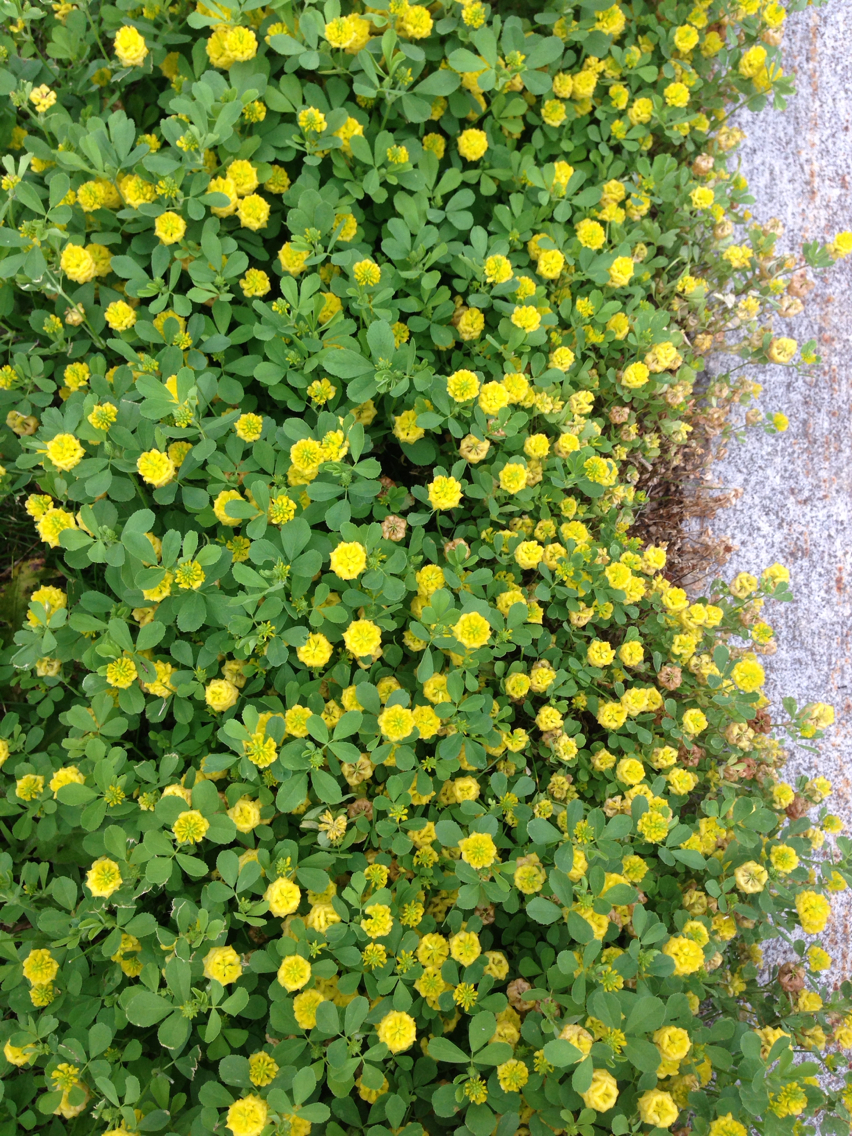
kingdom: Plantae
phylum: Tracheophyta
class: Magnoliopsida
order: Fabales
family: Fabaceae
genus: Trifolium
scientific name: Trifolium campestre
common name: Field clover
